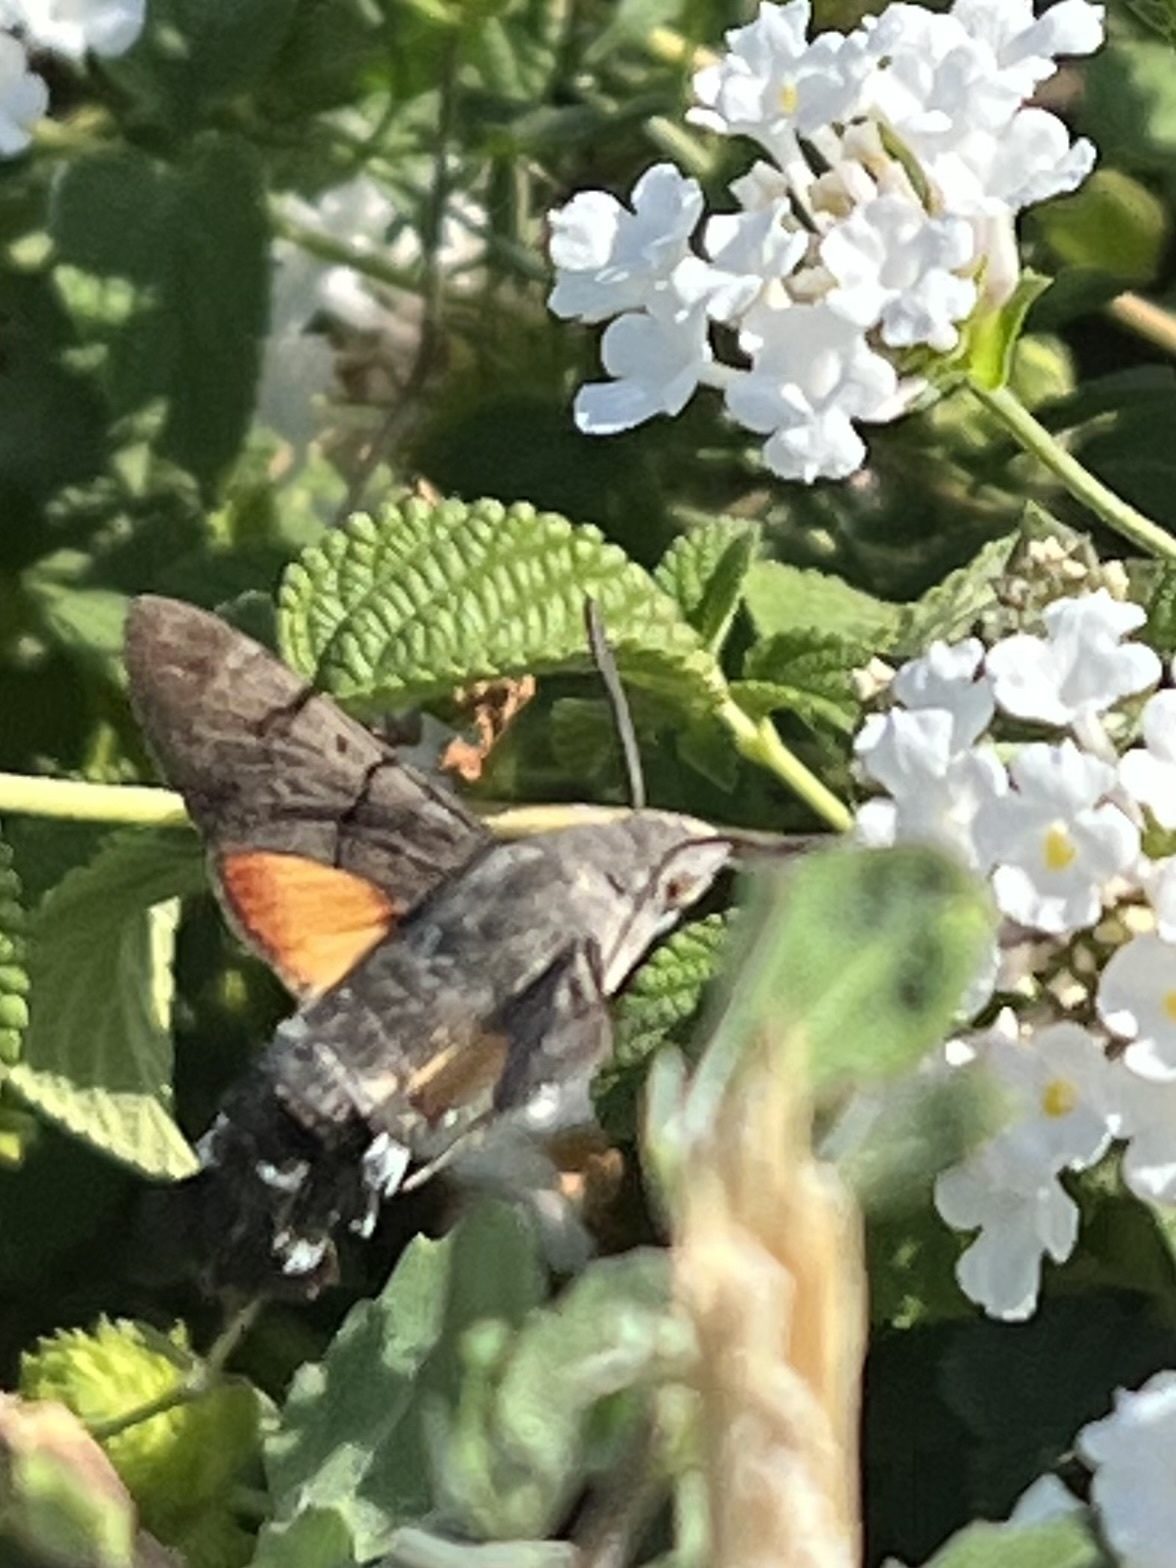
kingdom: Animalia
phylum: Arthropoda
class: Insecta
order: Lepidoptera
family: Sphingidae
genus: Macroglossum
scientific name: Macroglossum stellatarum
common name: Humming-bird hawk-moth
